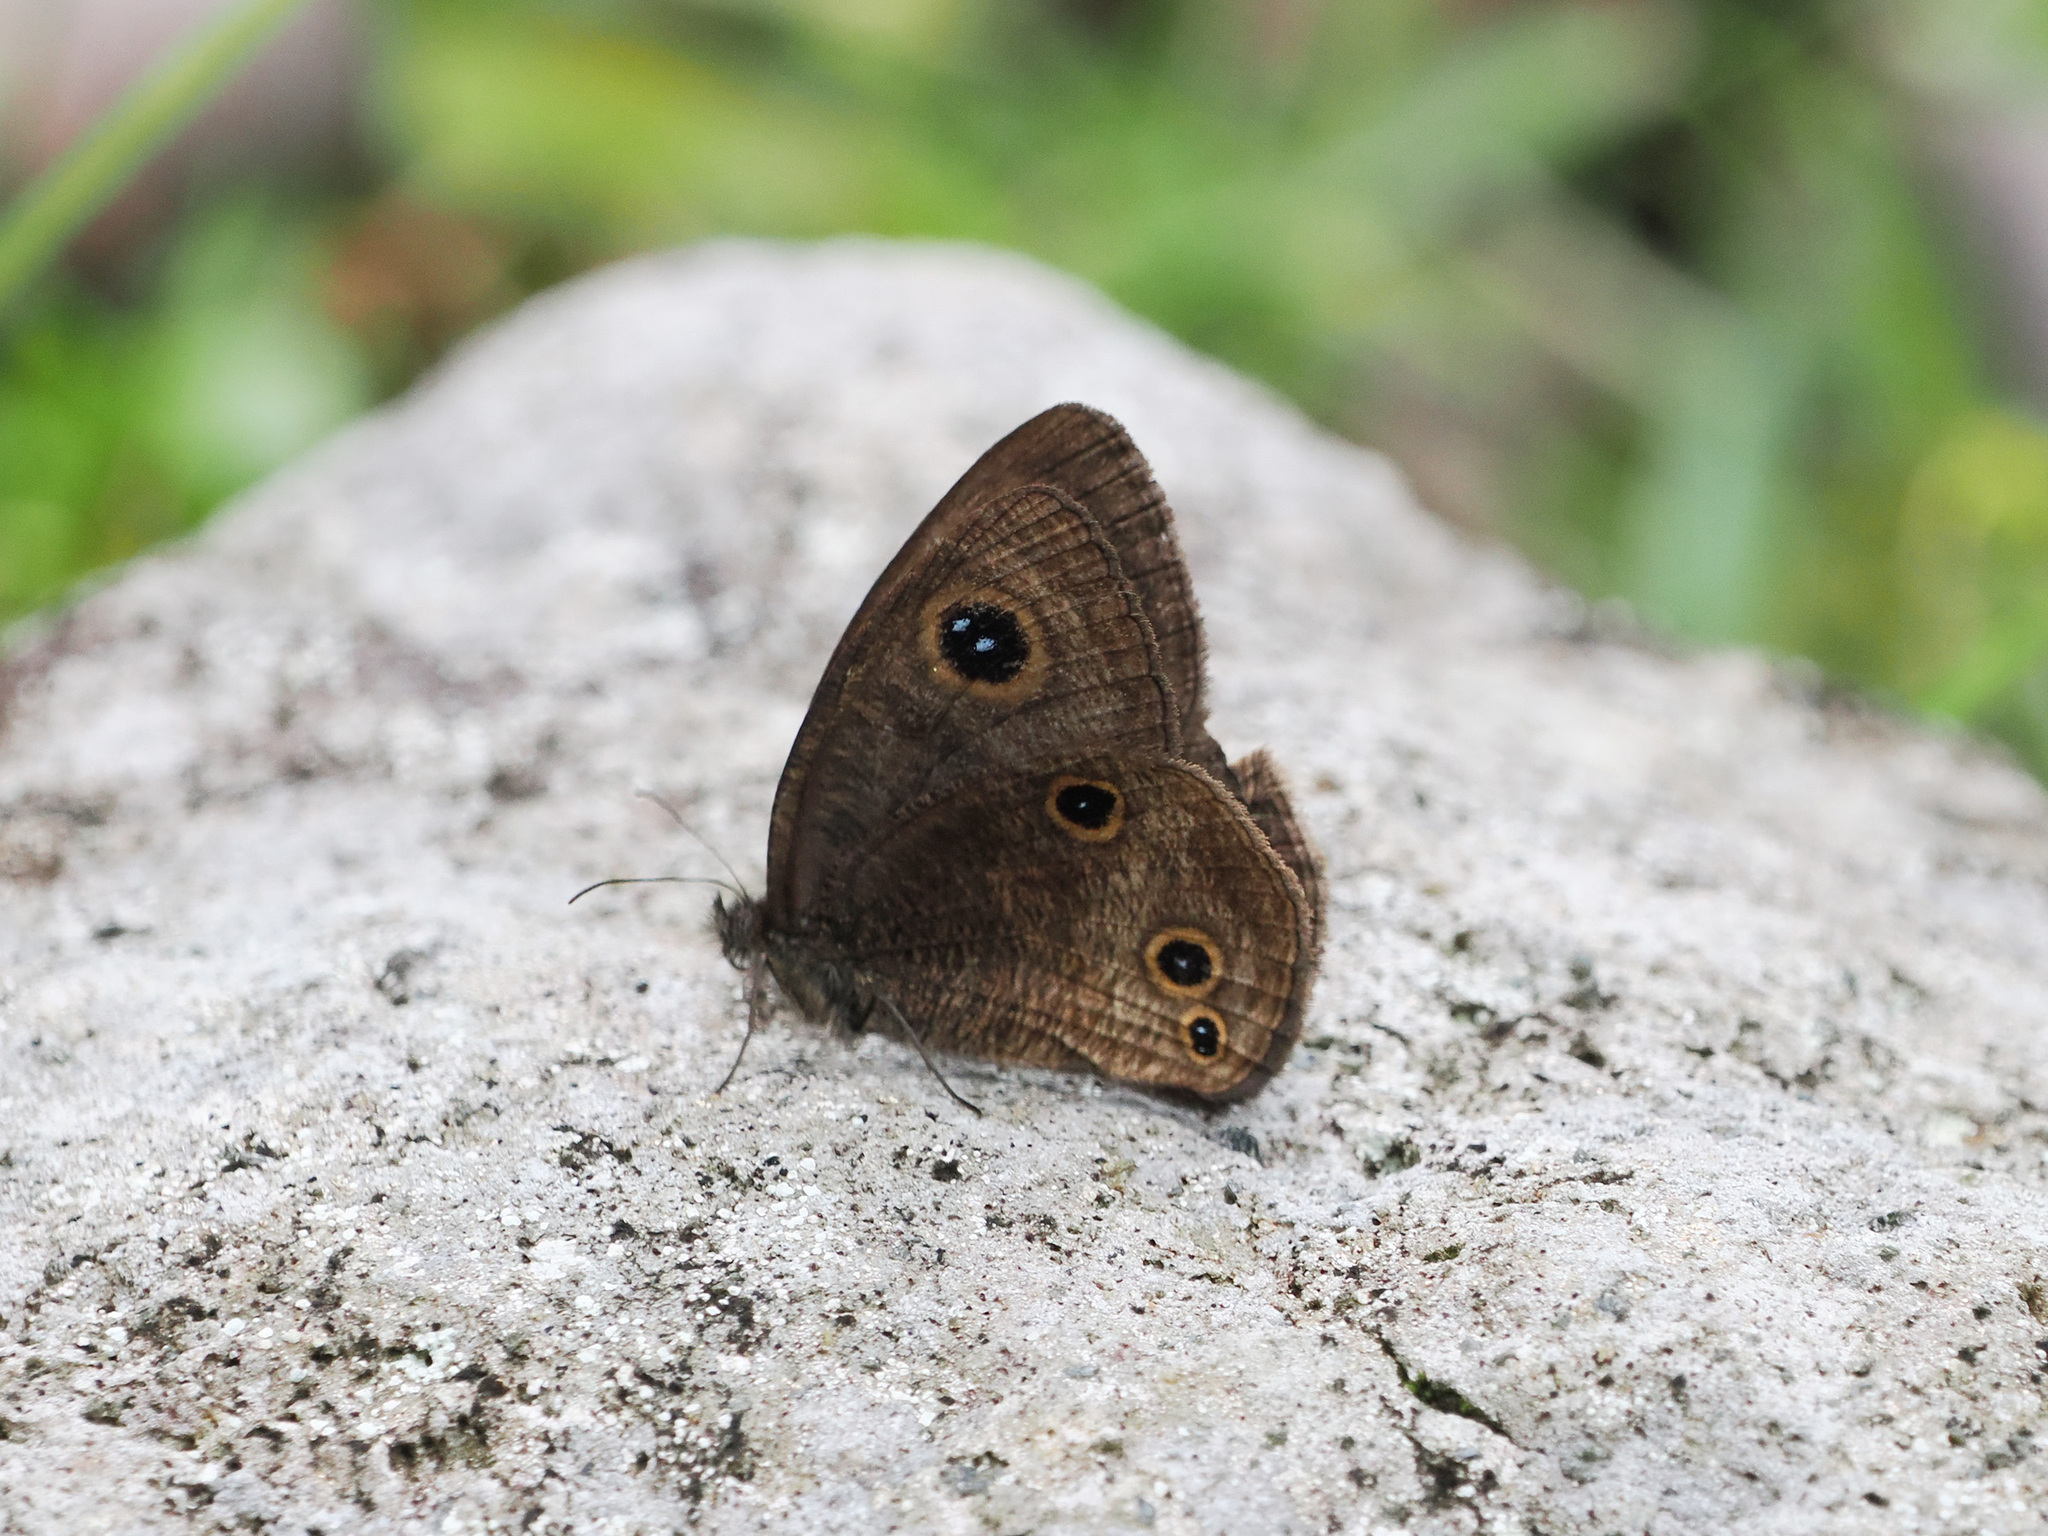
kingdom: Animalia
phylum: Arthropoda
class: Insecta
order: Lepidoptera
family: Nymphalidae
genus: Ypthima
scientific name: Ypthima ancus
